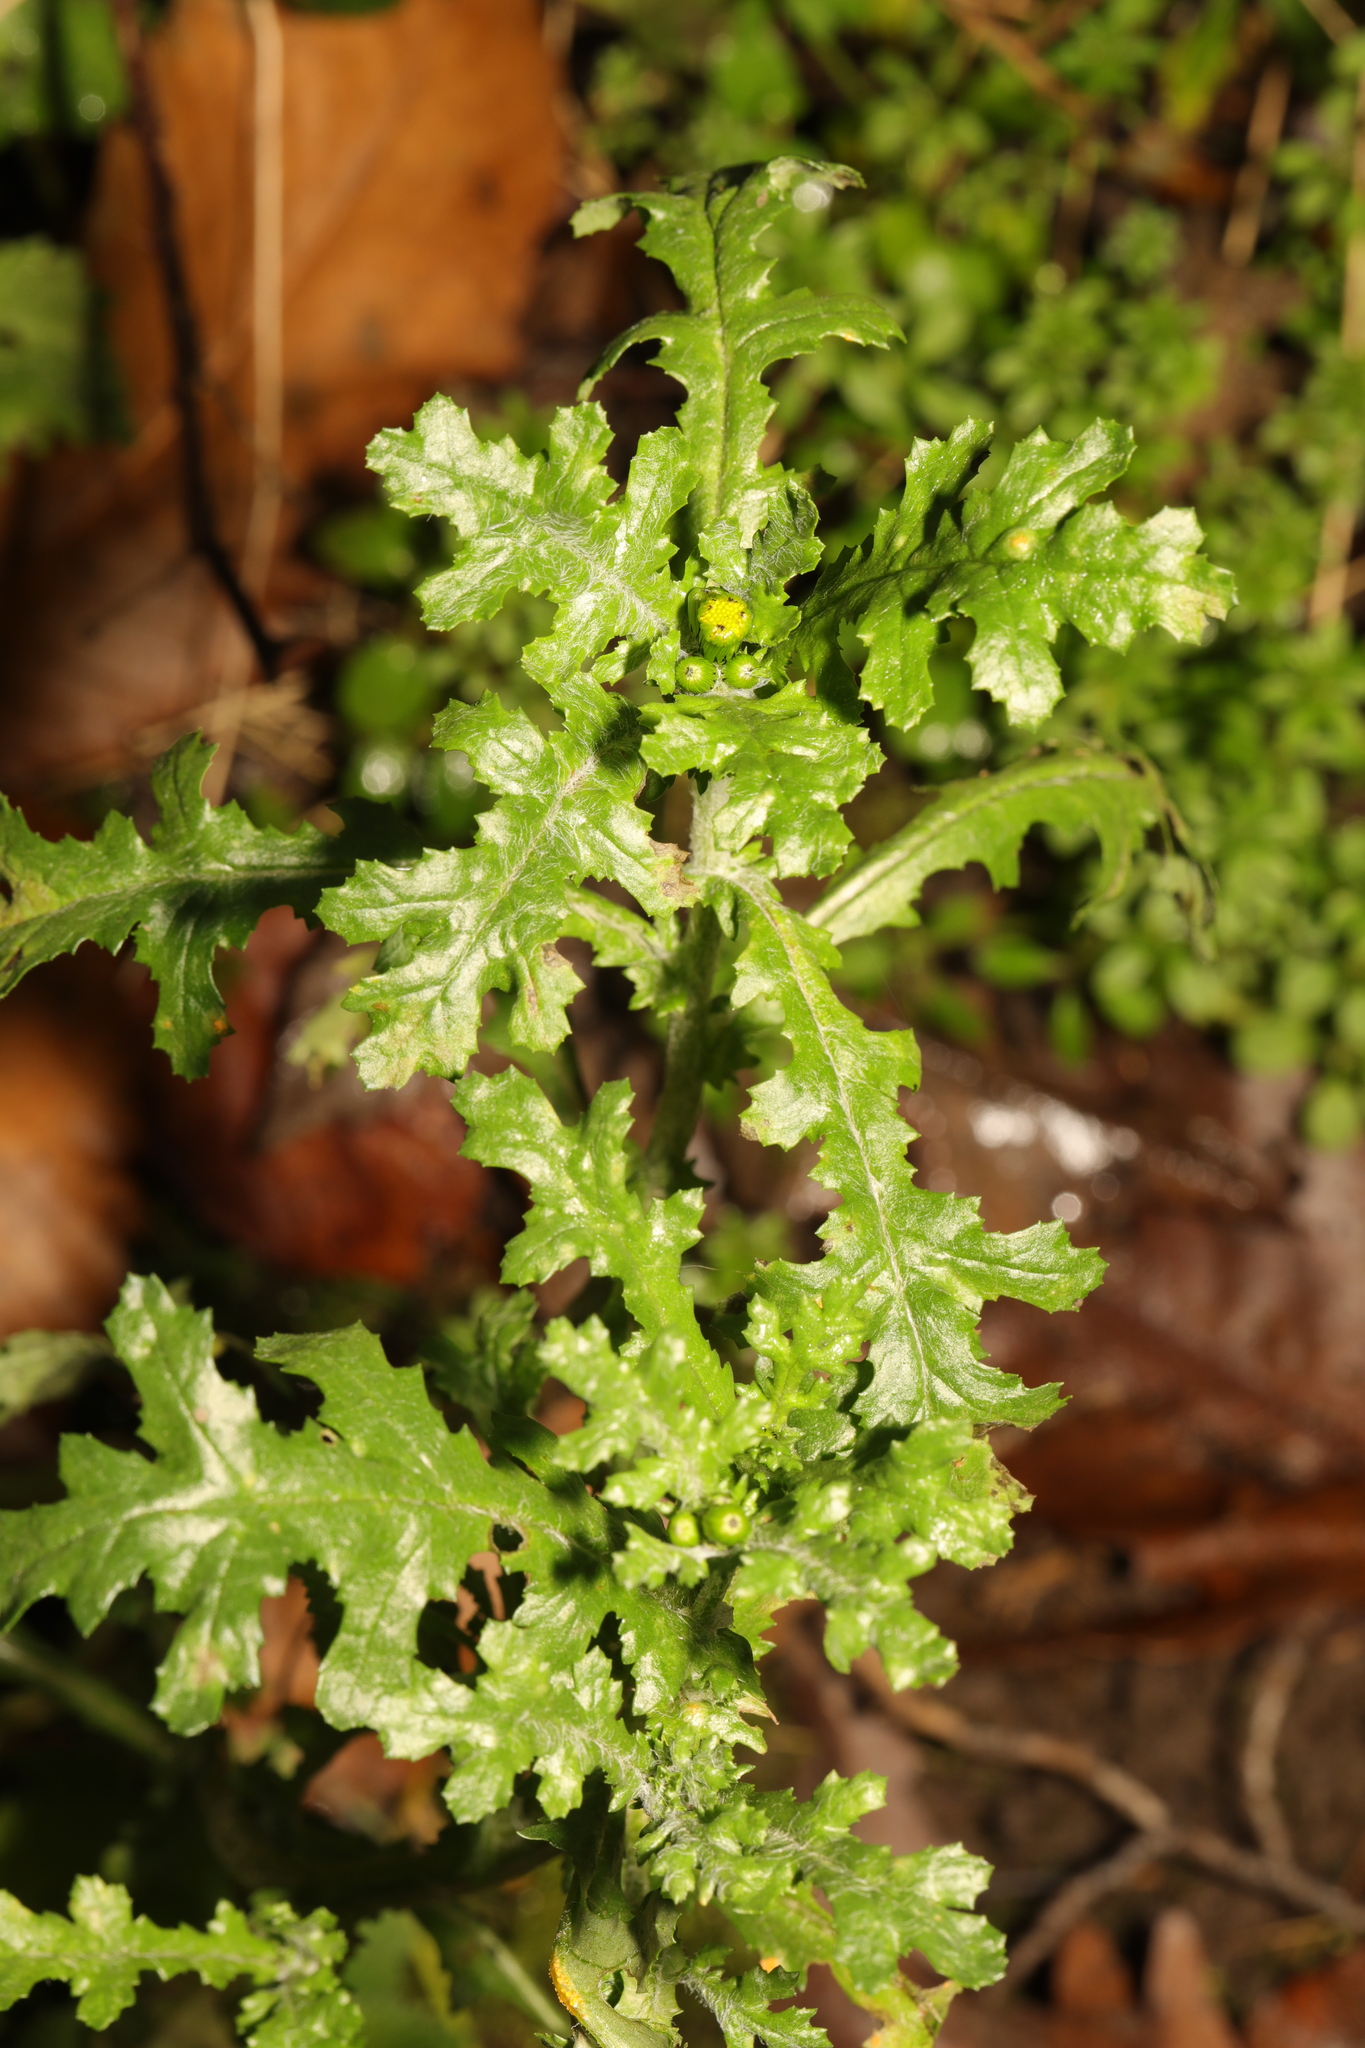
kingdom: Plantae
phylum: Tracheophyta
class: Magnoliopsida
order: Asterales
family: Asteraceae
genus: Senecio
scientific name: Senecio vulgaris
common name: Old-man-in-the-spring
